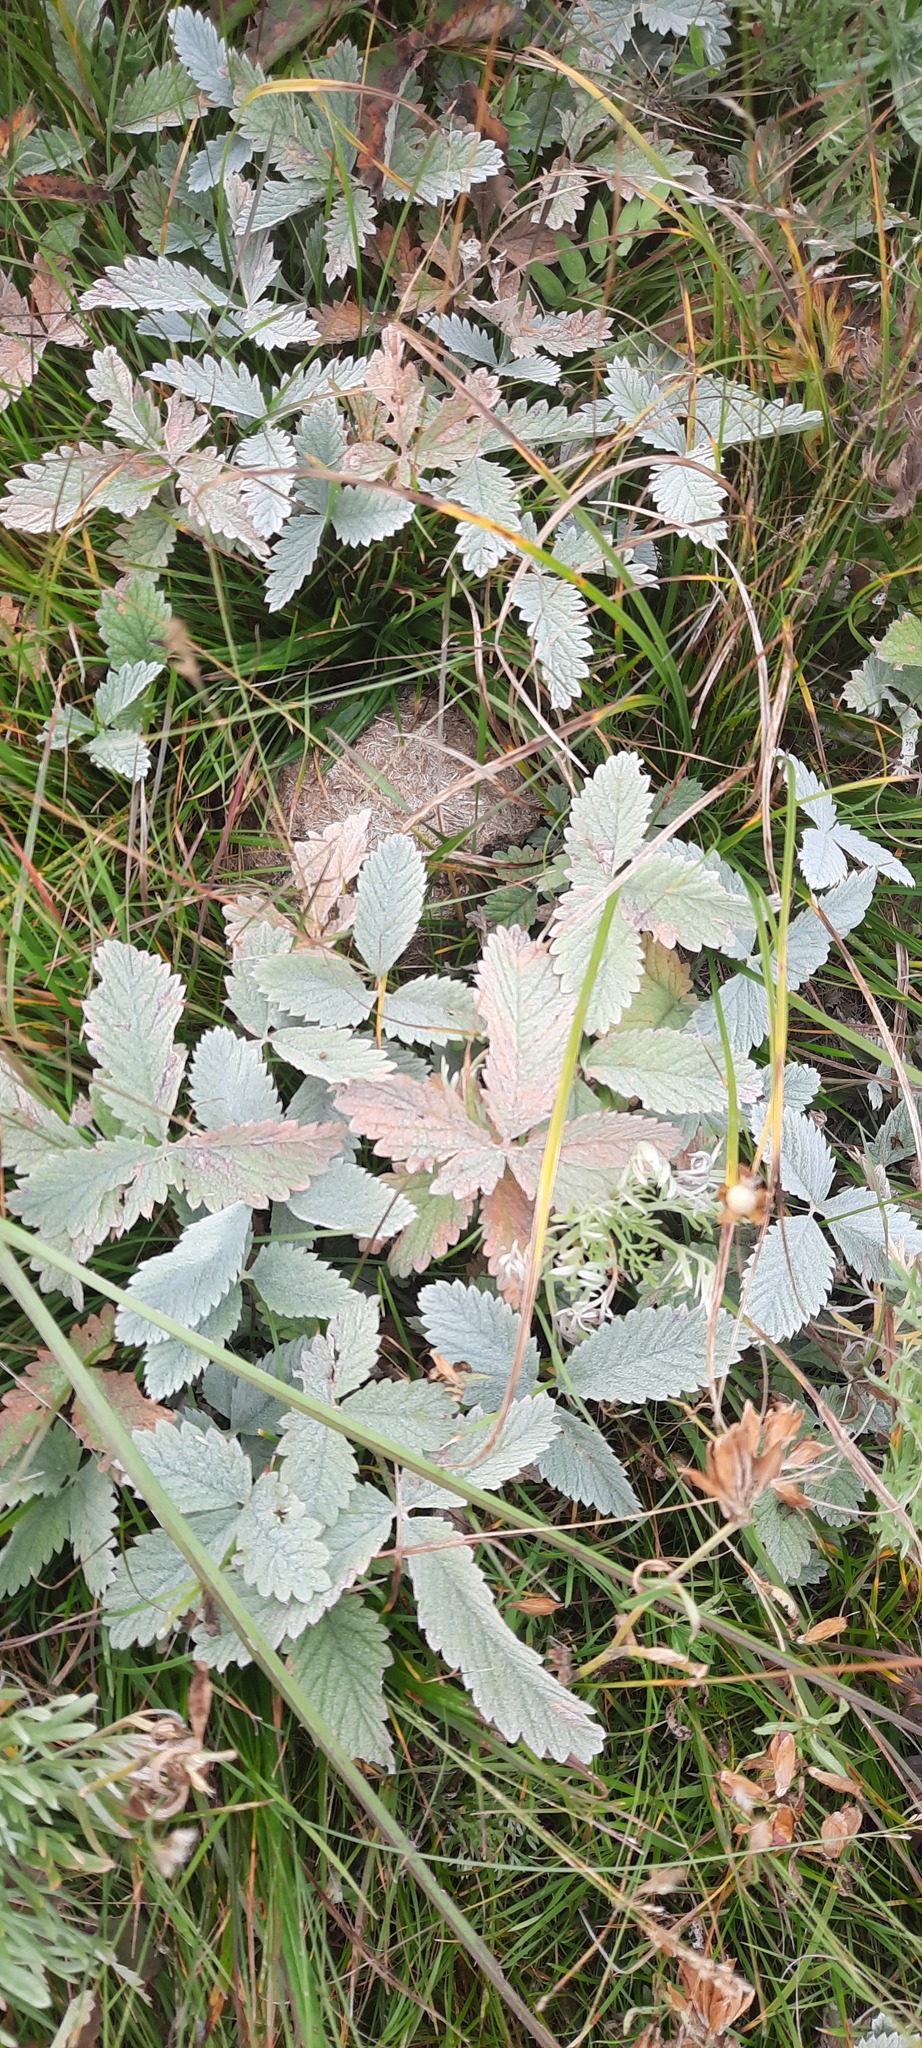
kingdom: Plantae
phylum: Tracheophyta
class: Magnoliopsida
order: Rosales
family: Rosaceae
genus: Potentilla
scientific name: Potentilla nivea
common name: Snow cinquefoil
